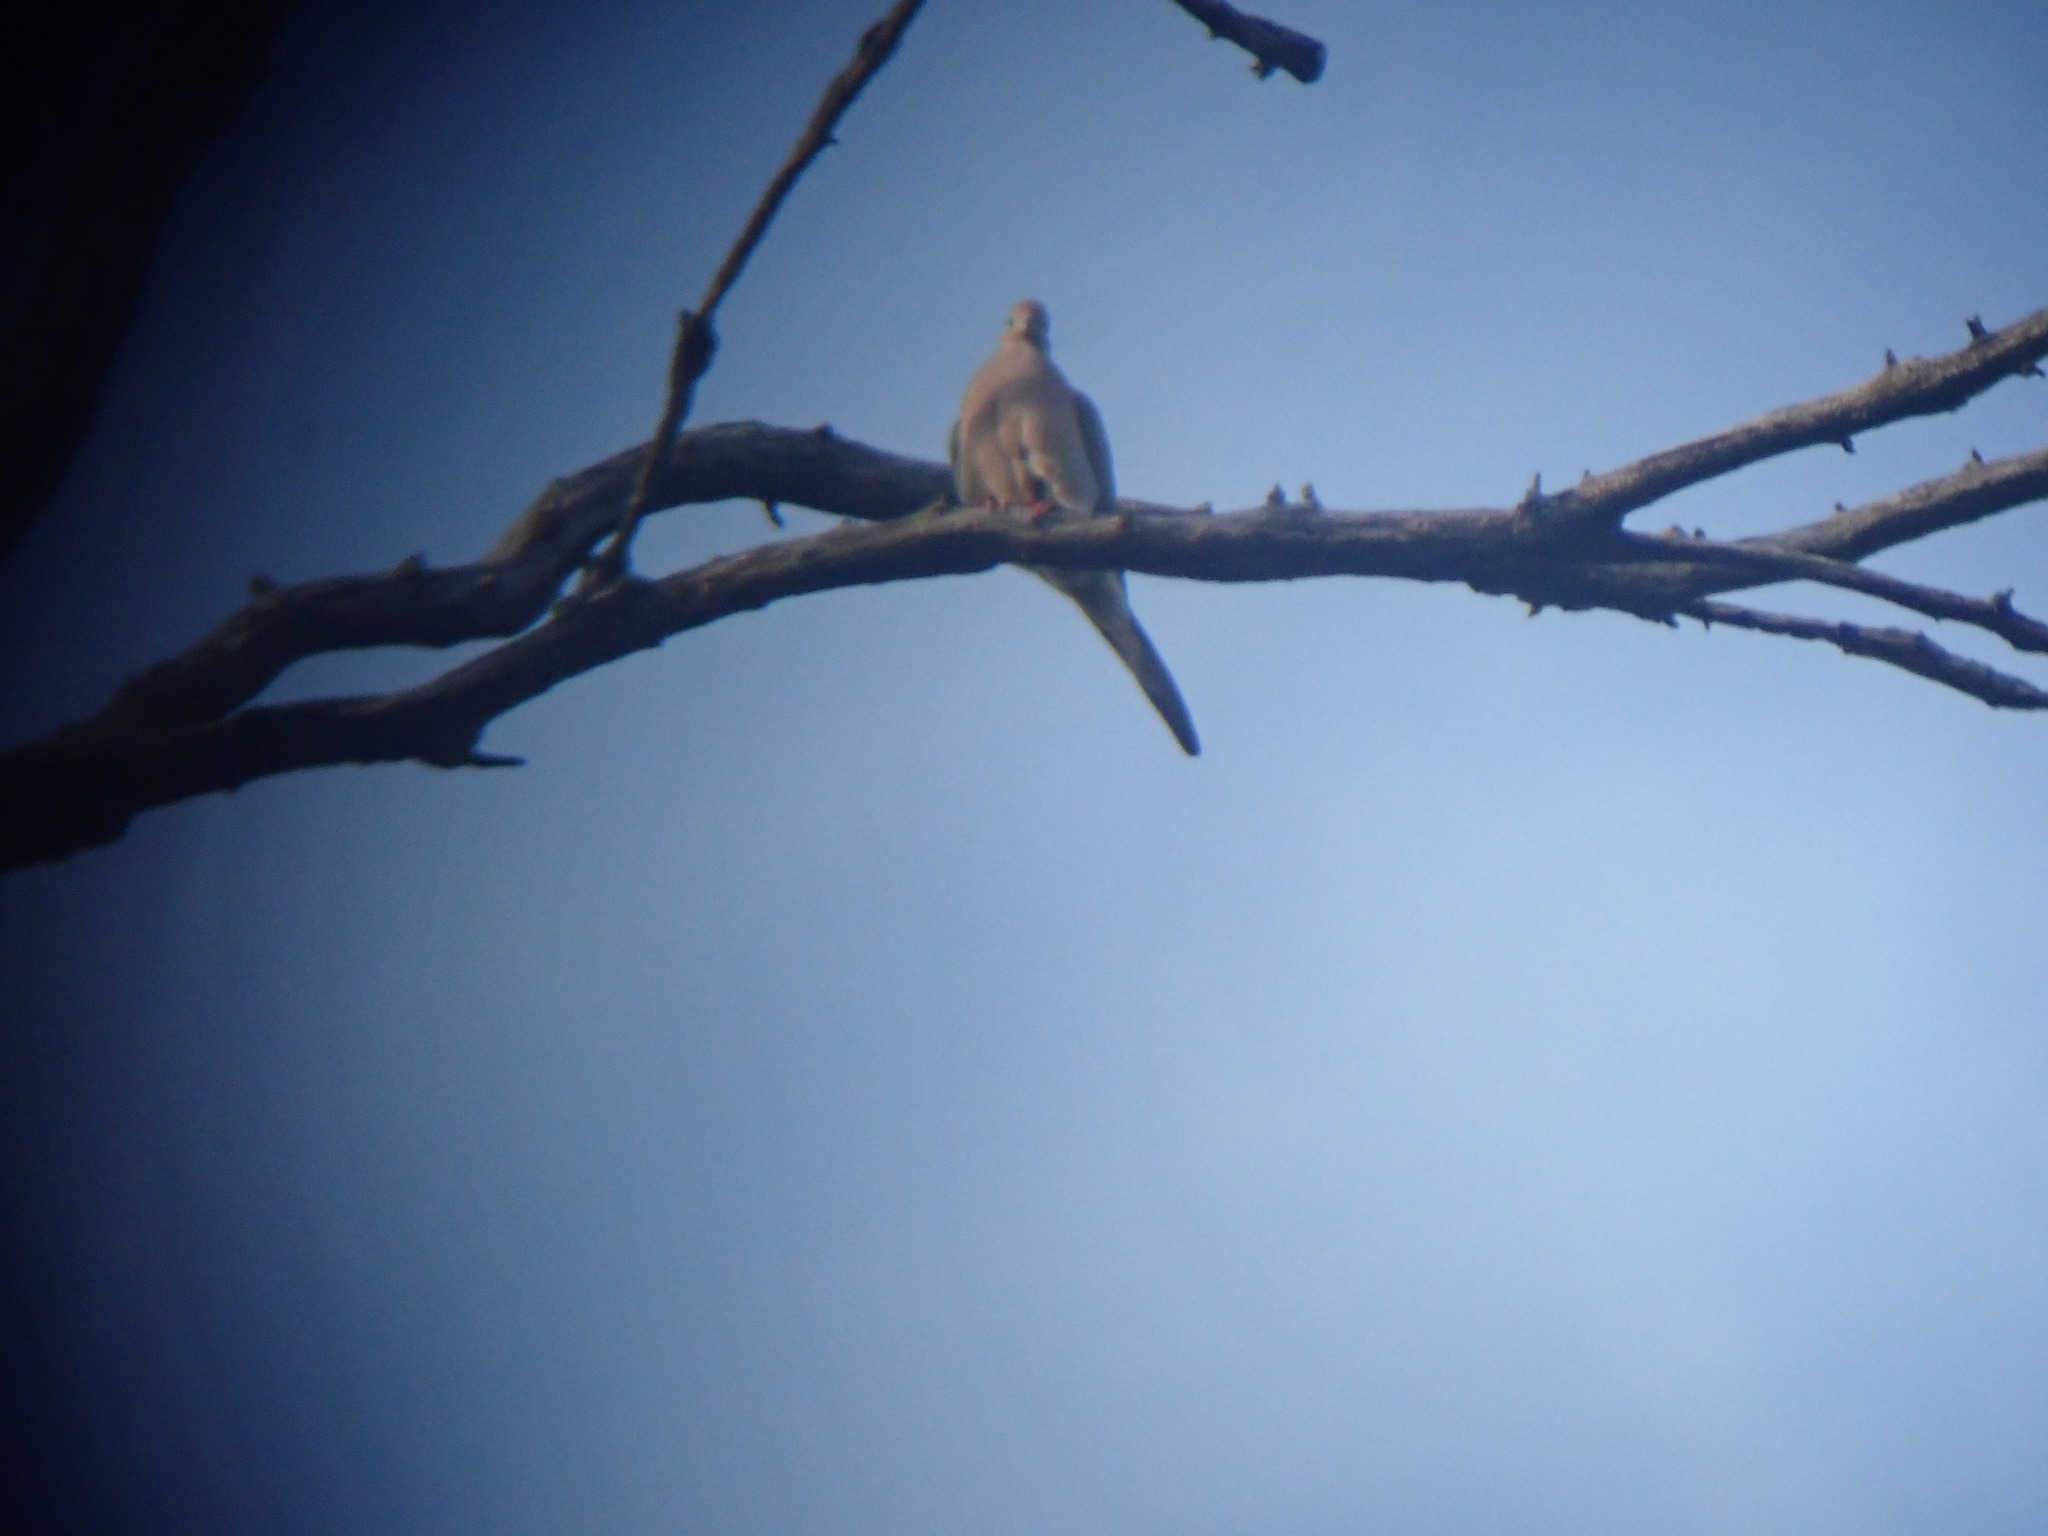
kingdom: Animalia
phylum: Chordata
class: Aves
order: Columbiformes
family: Columbidae
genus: Zenaida
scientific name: Zenaida macroura
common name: Mourning dove
